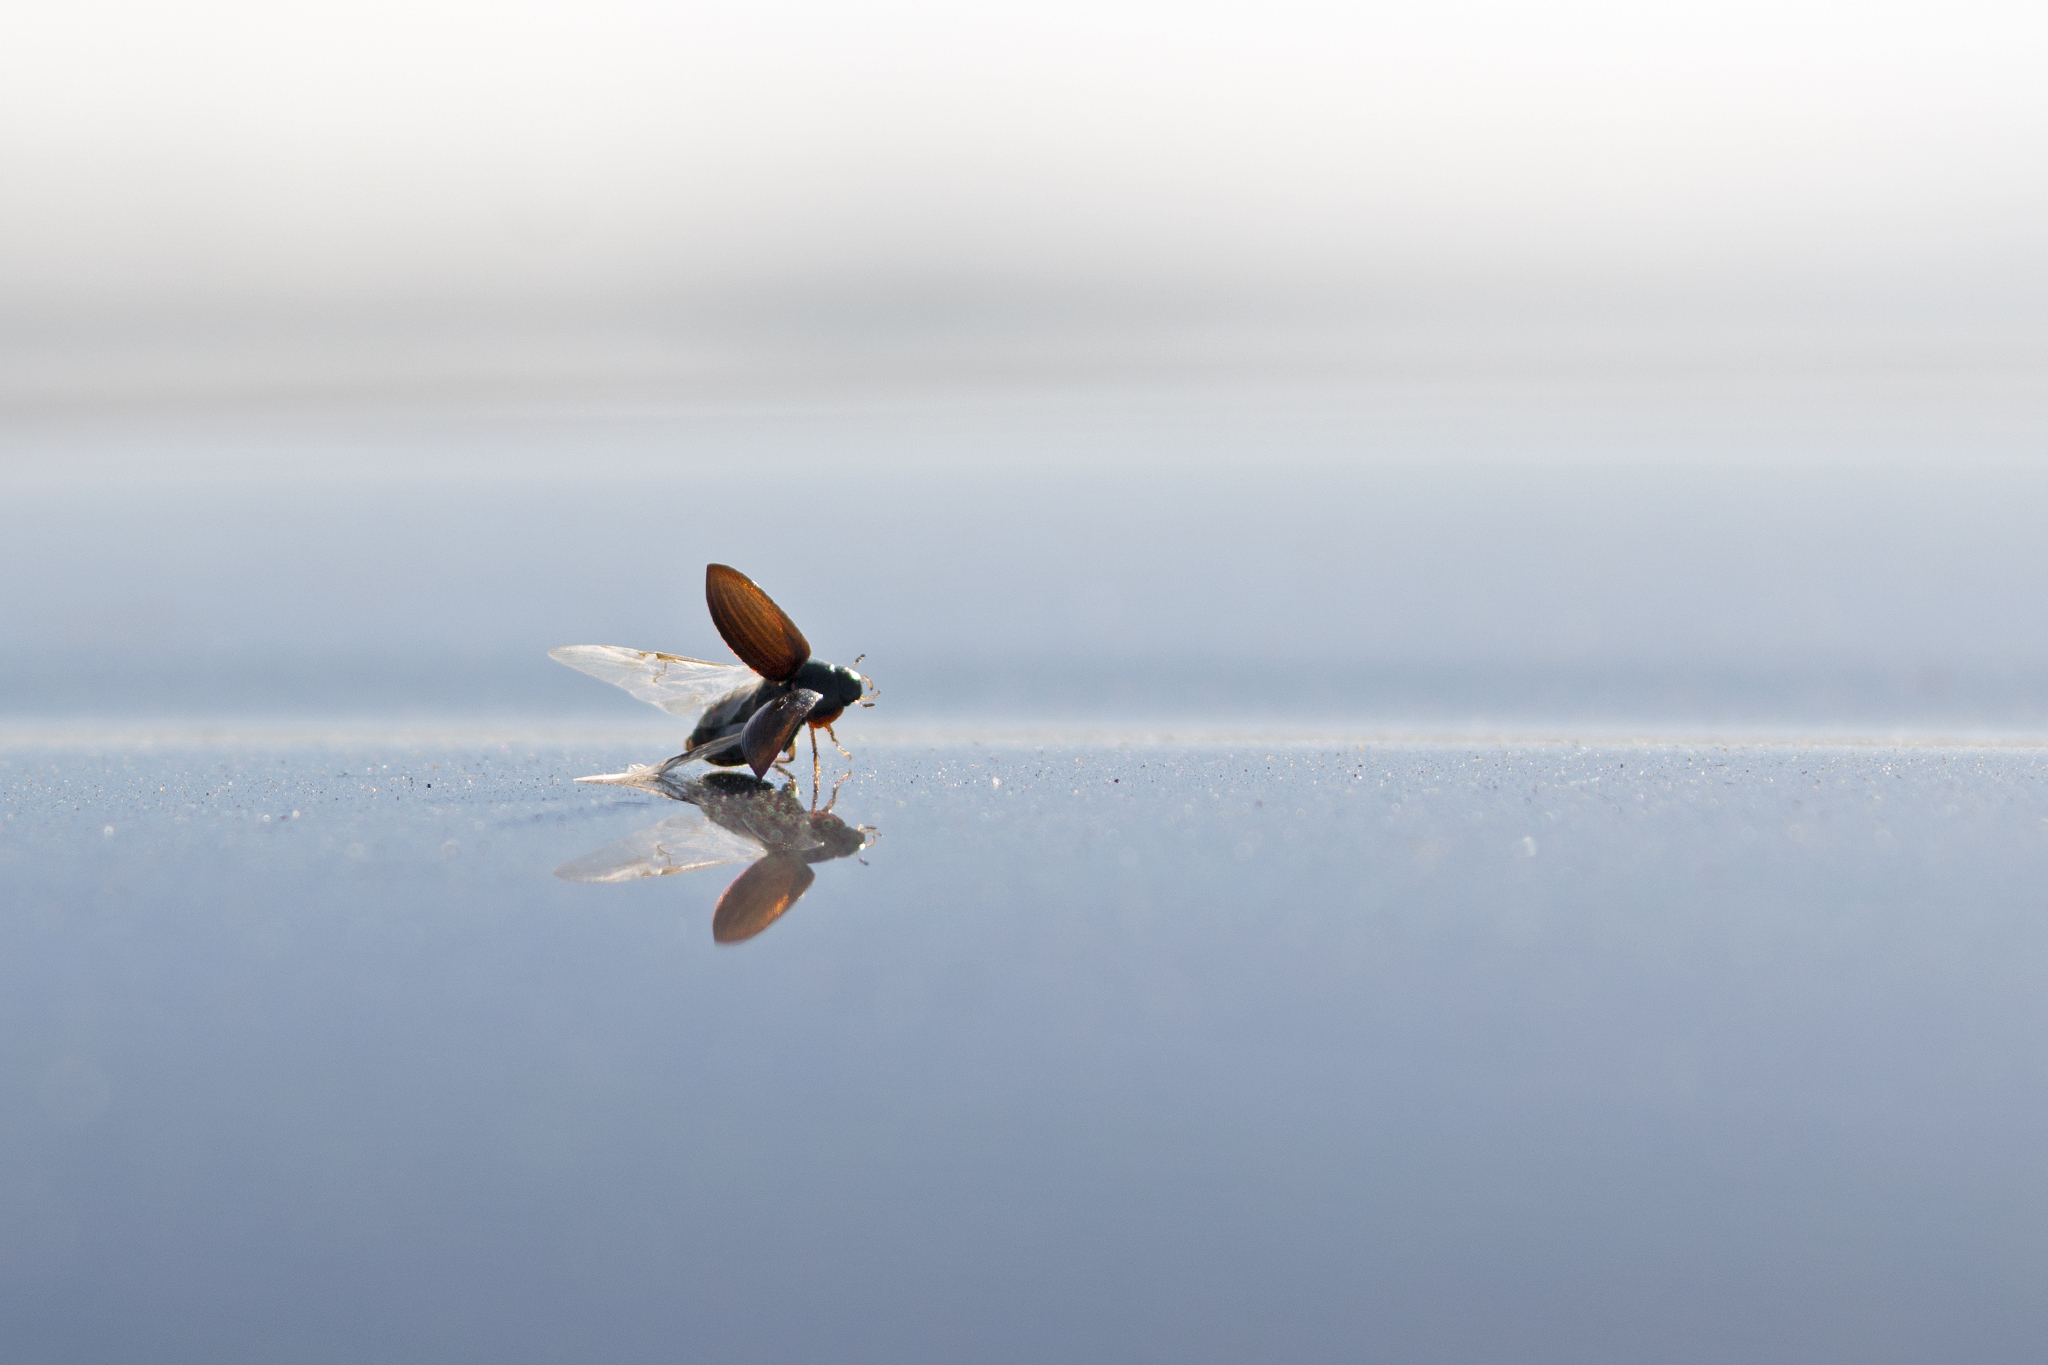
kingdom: Animalia
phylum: Arthropoda
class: Insecta
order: Coleoptera
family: Hydrophilidae
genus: Hydrobius
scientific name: Hydrobius
